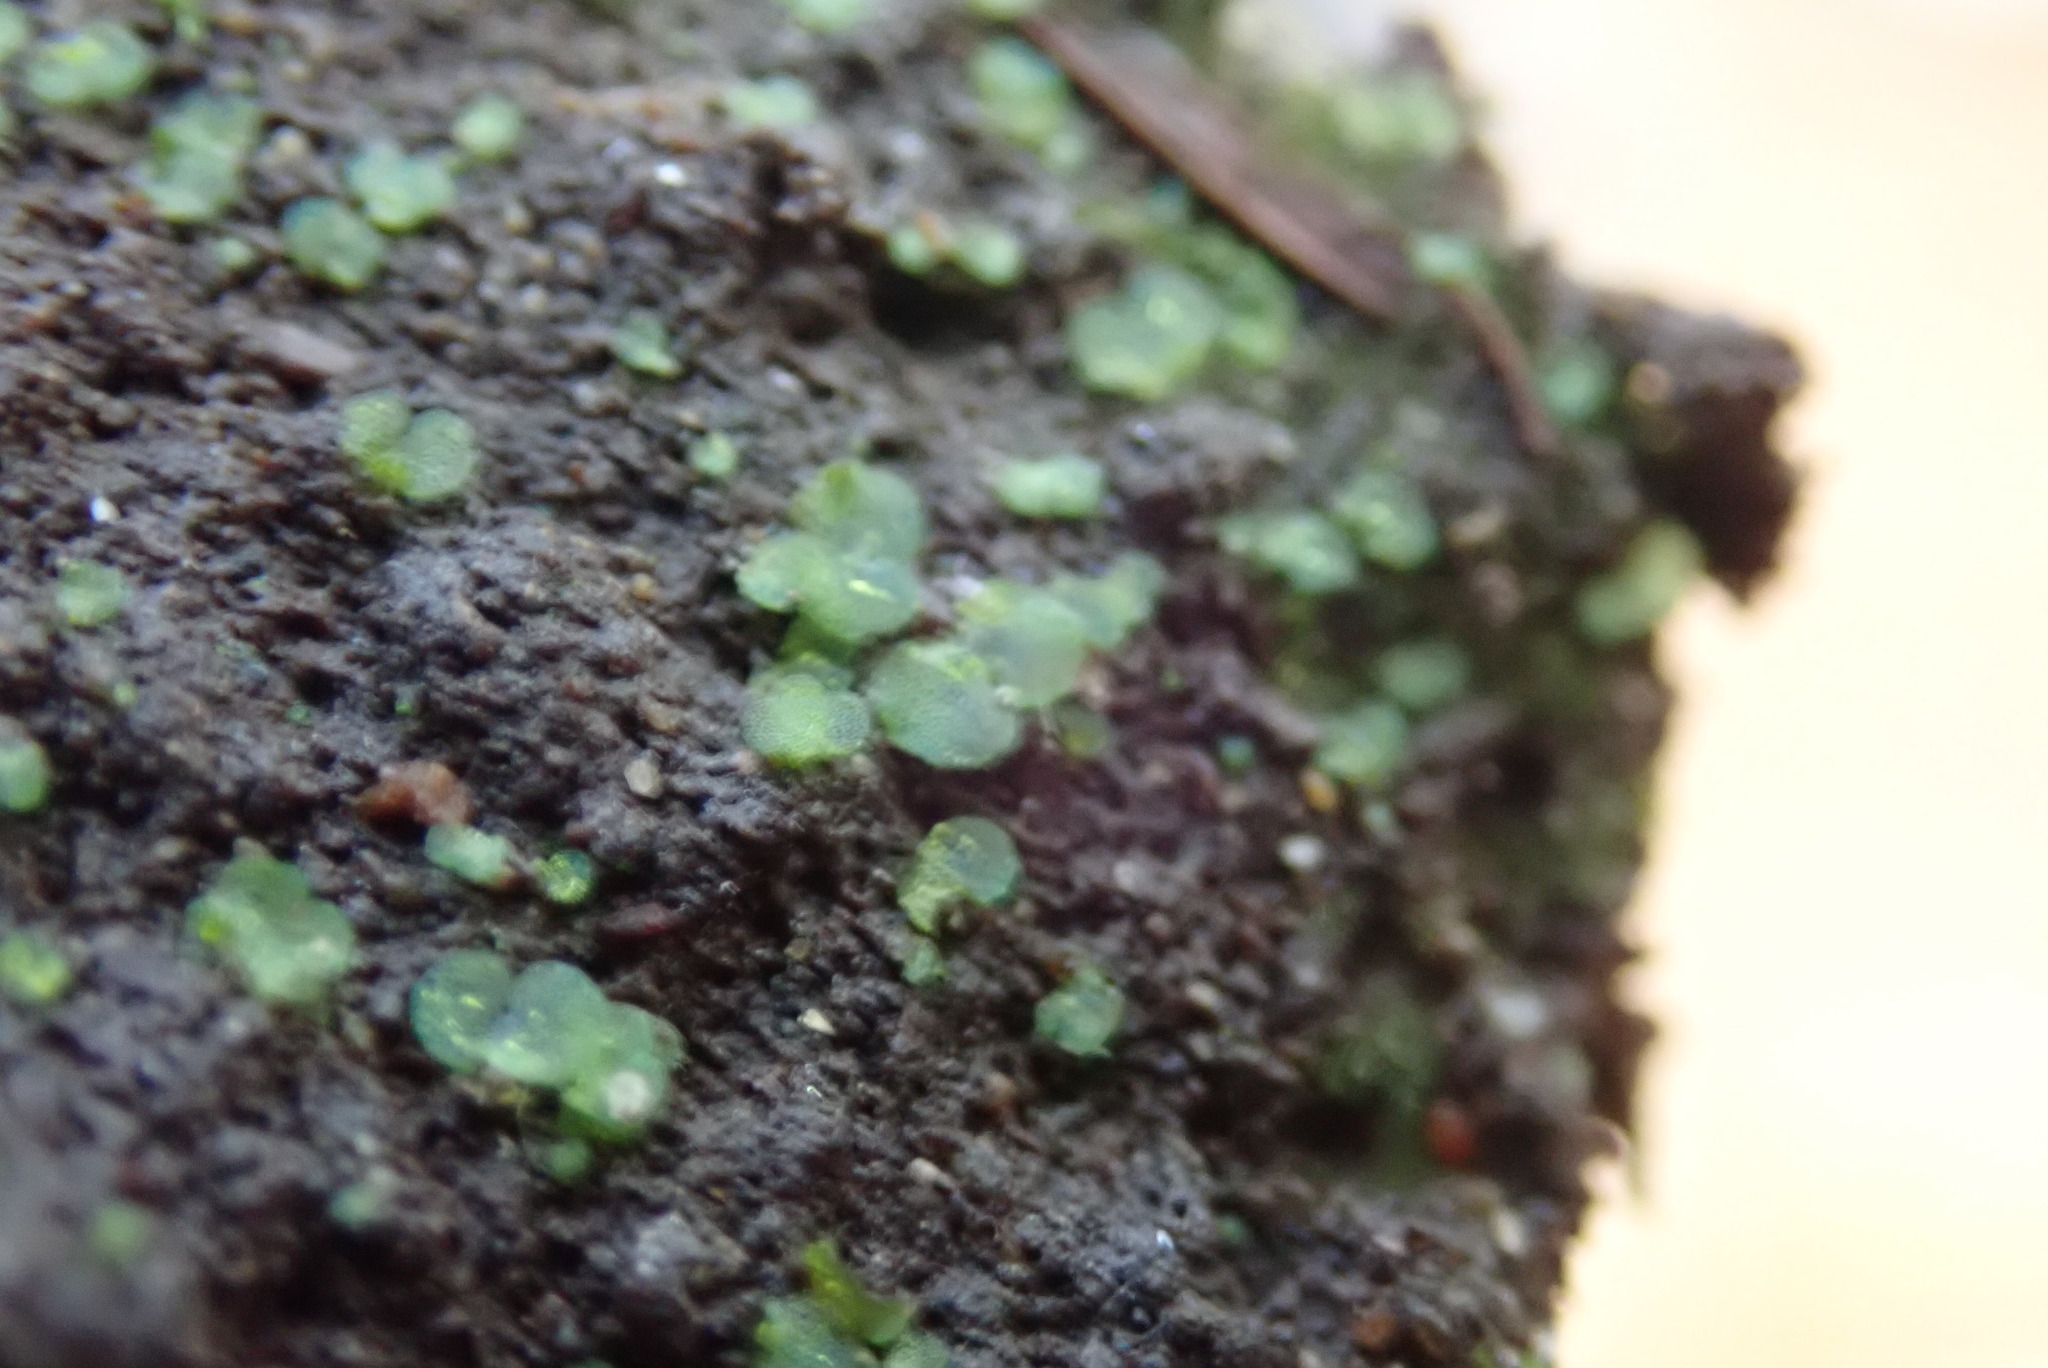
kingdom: Plantae
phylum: Tracheophyta
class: Polypodiopsida
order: Polypodiales
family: Athyriaceae
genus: Athyrium
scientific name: Athyrium filix-femina
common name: Lady fern
